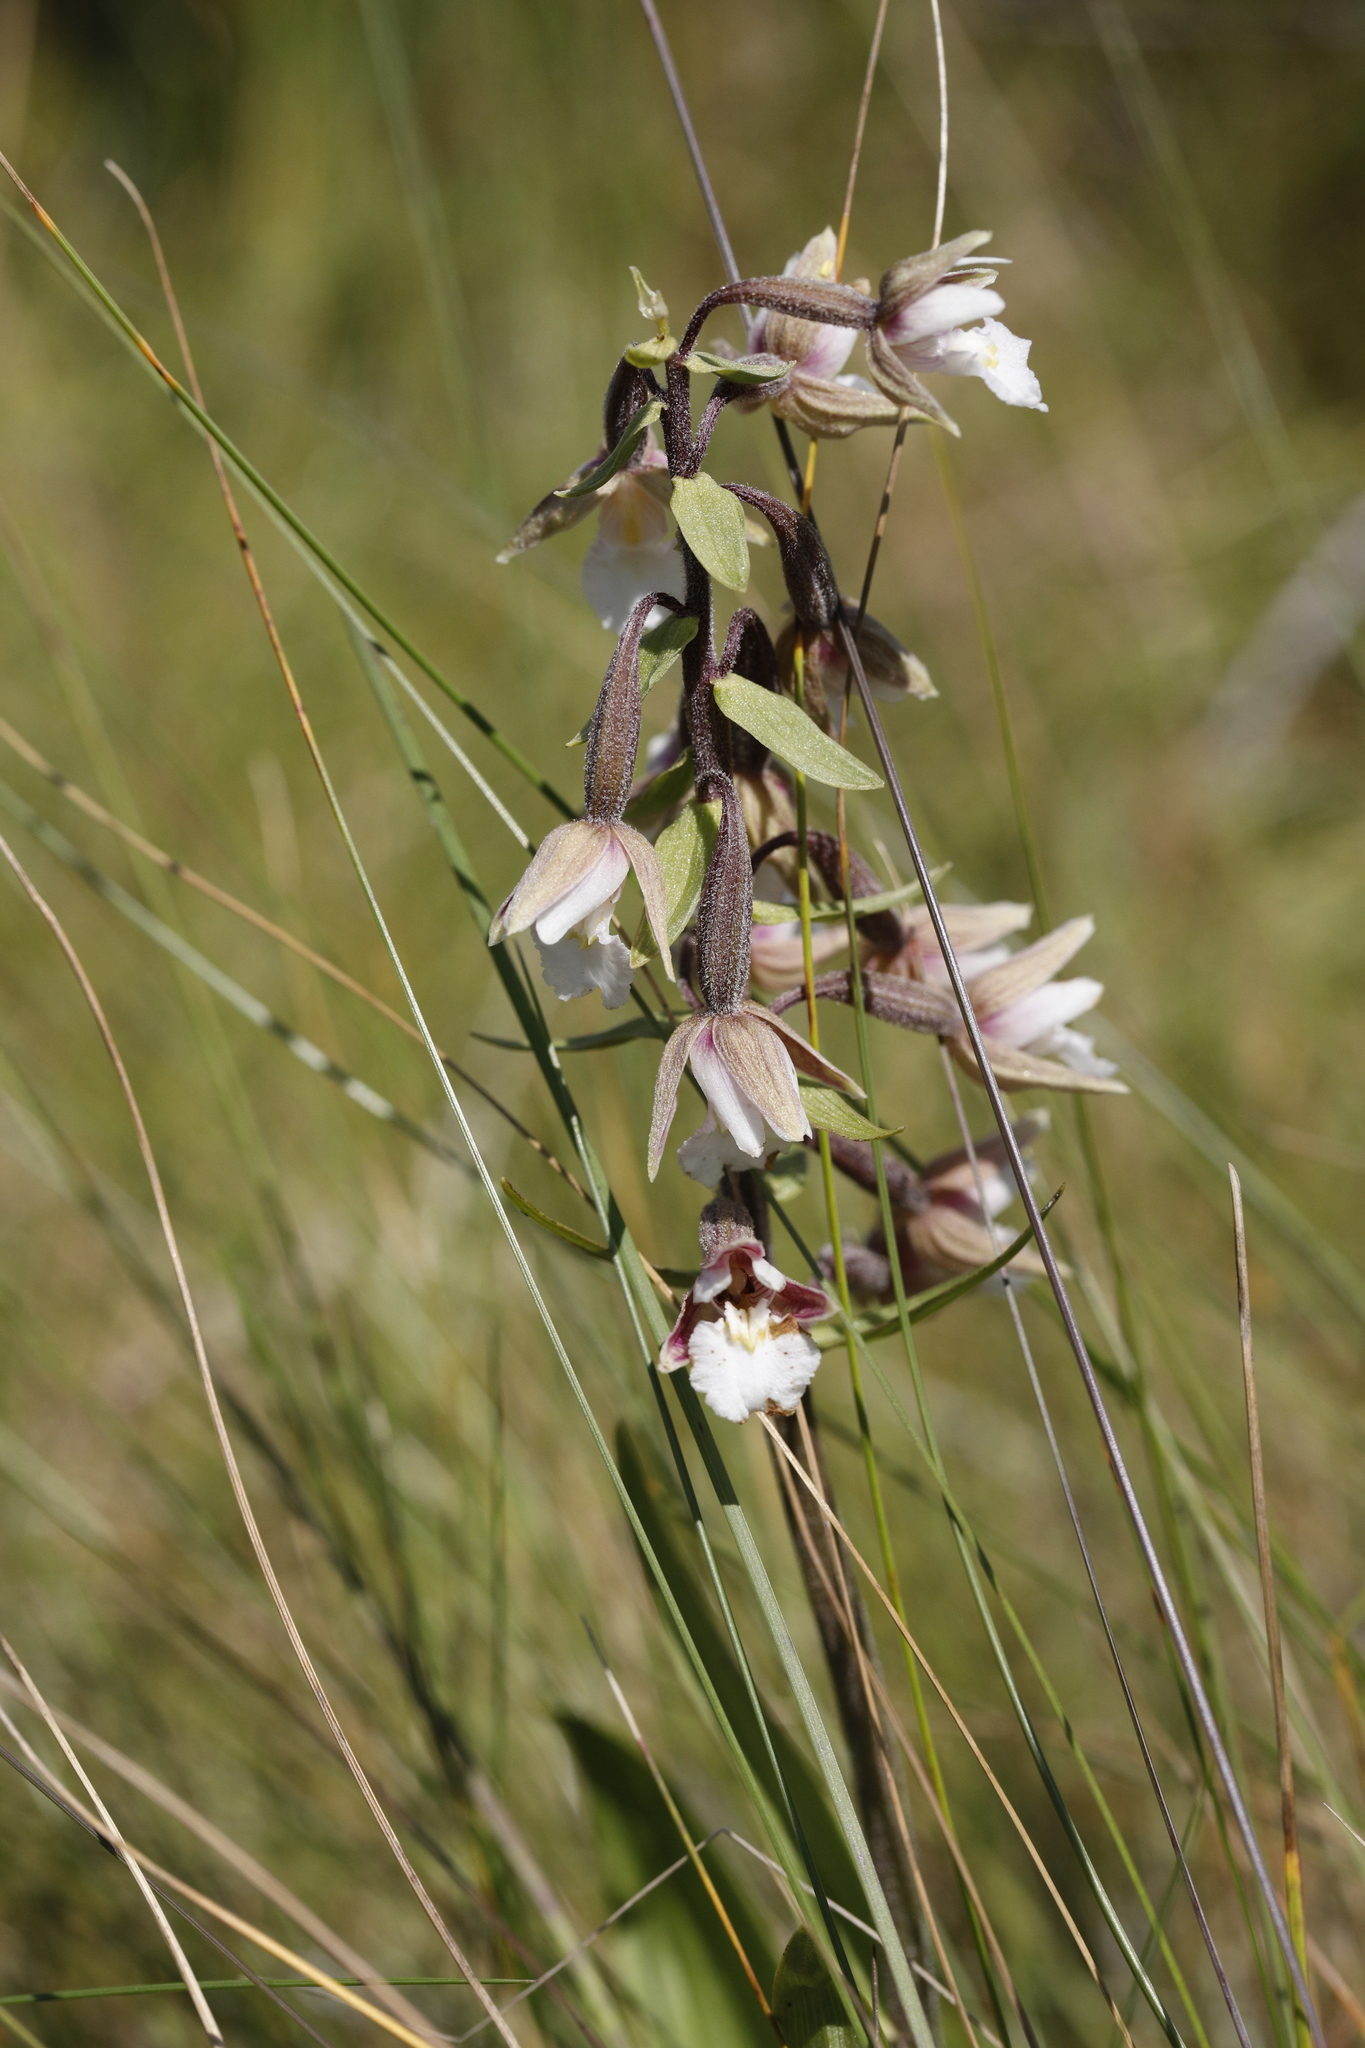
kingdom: Plantae
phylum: Tracheophyta
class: Liliopsida
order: Asparagales
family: Orchidaceae
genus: Epipactis
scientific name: Epipactis palustris
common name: Marsh helleborine
